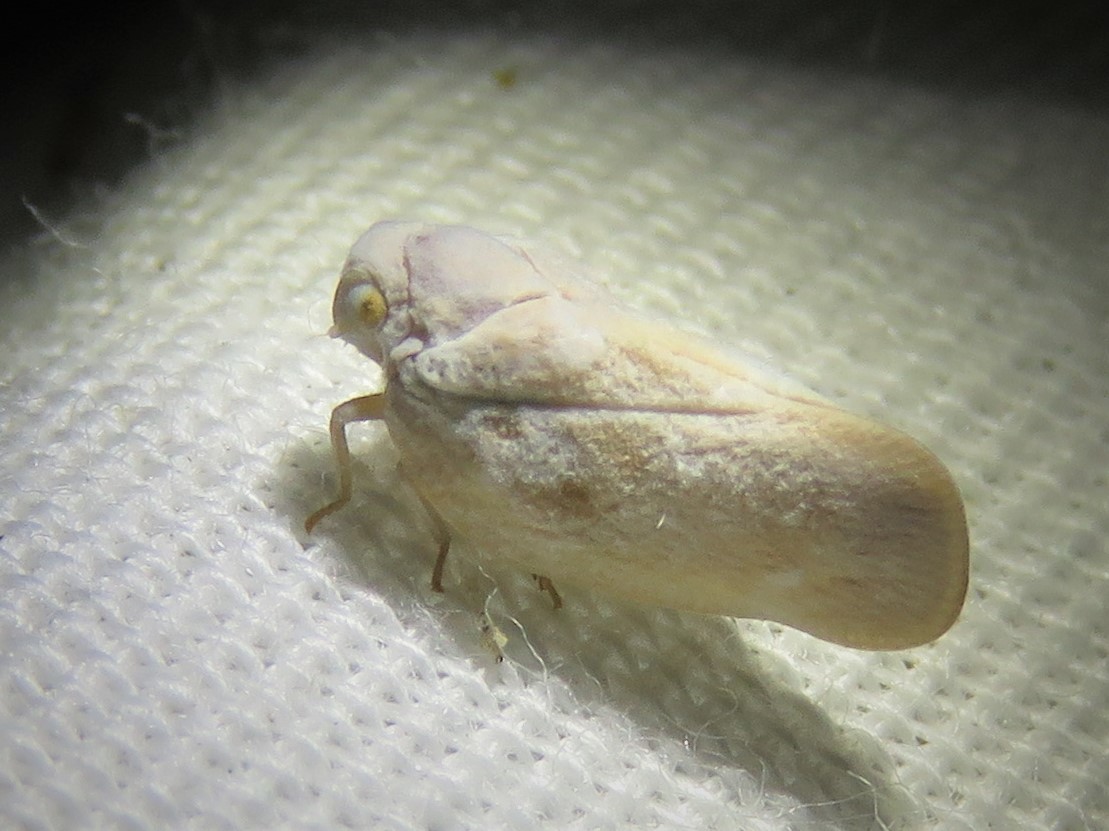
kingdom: Animalia
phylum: Arthropoda
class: Insecta
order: Hemiptera
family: Flatidae
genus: Metcalfa
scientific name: Metcalfa pruinosa
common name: Citrus flatid planthopper
